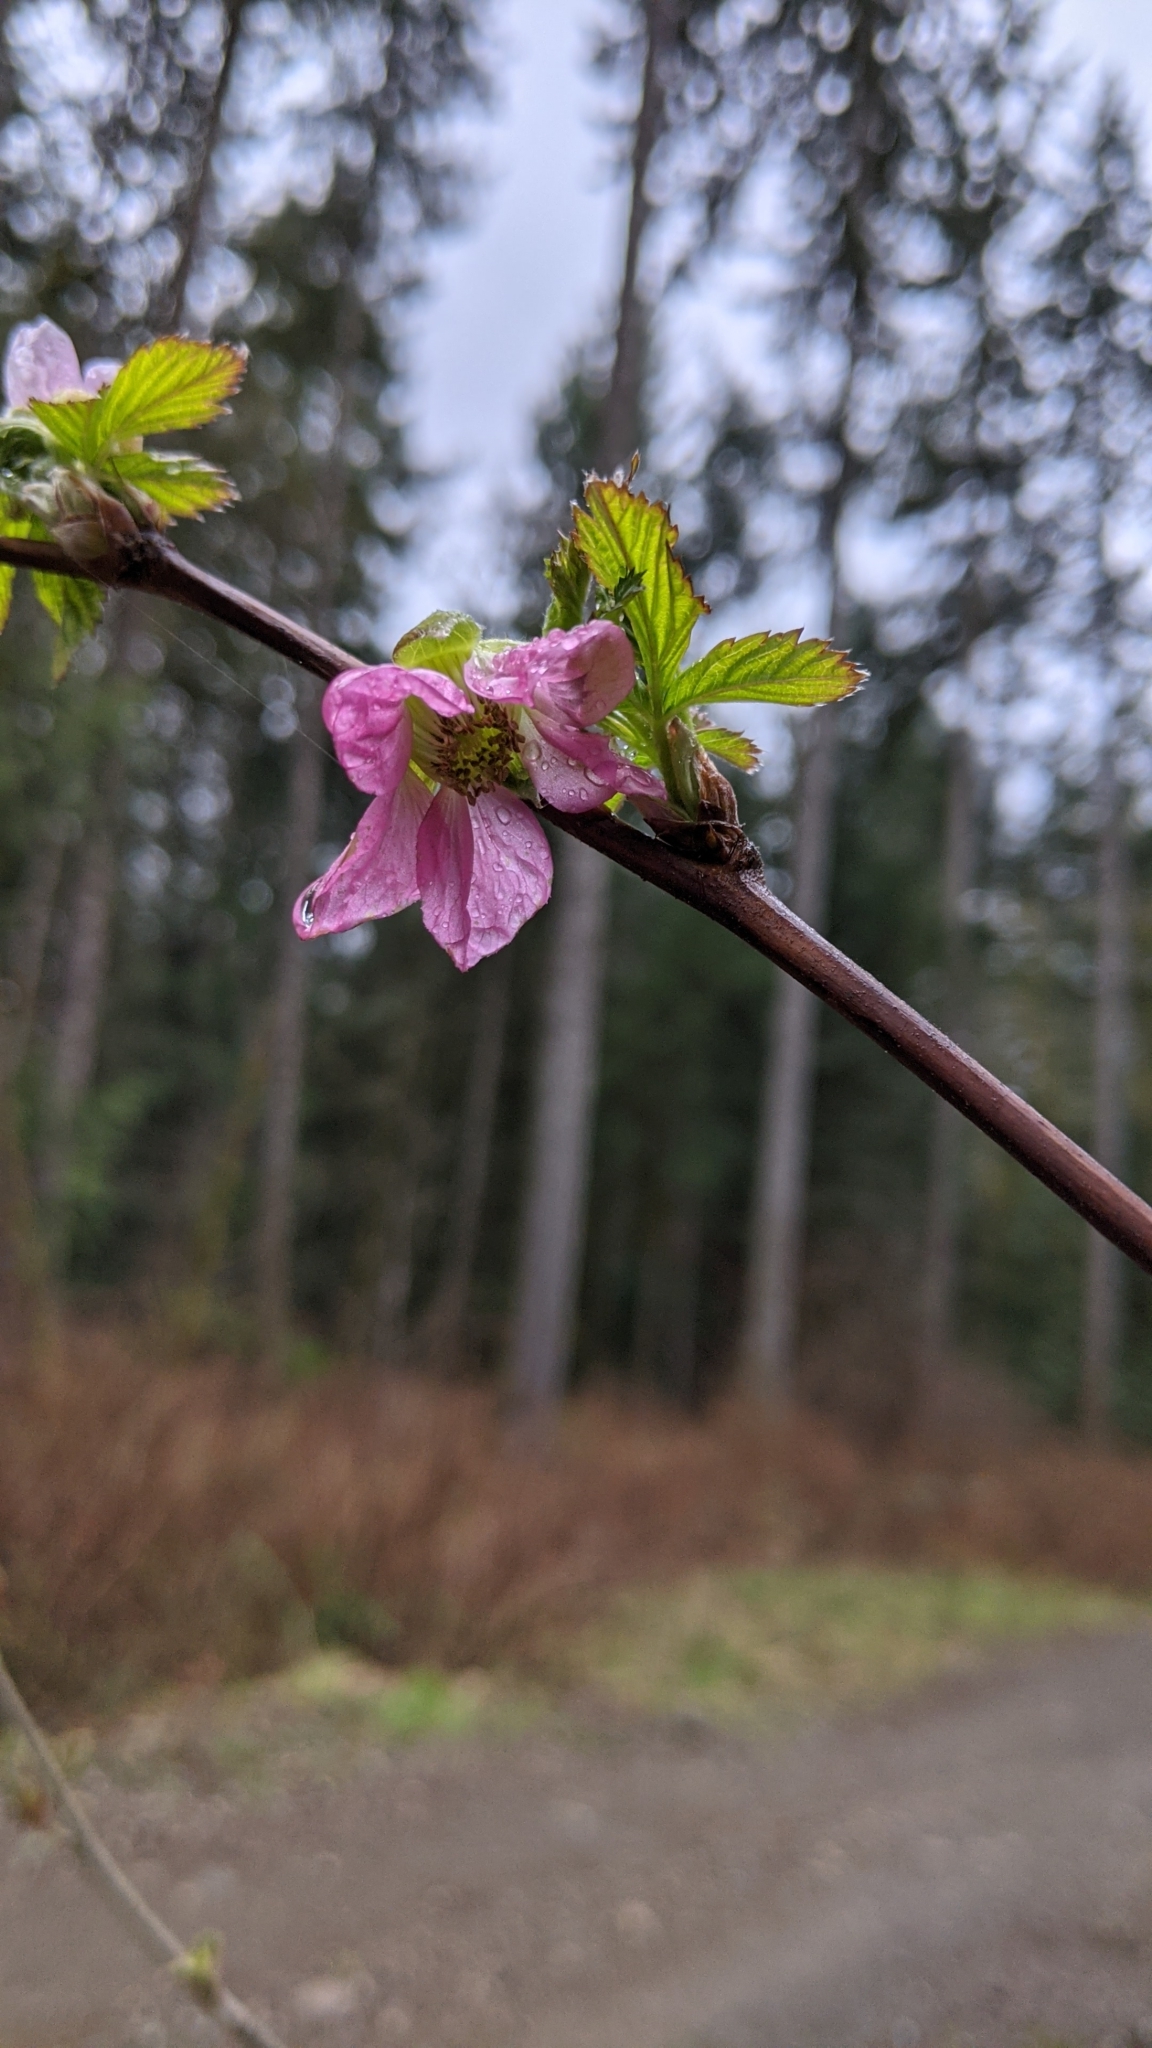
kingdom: Plantae
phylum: Tracheophyta
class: Magnoliopsida
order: Rosales
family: Rosaceae
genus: Rubus
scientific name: Rubus spectabilis
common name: Salmonberry
